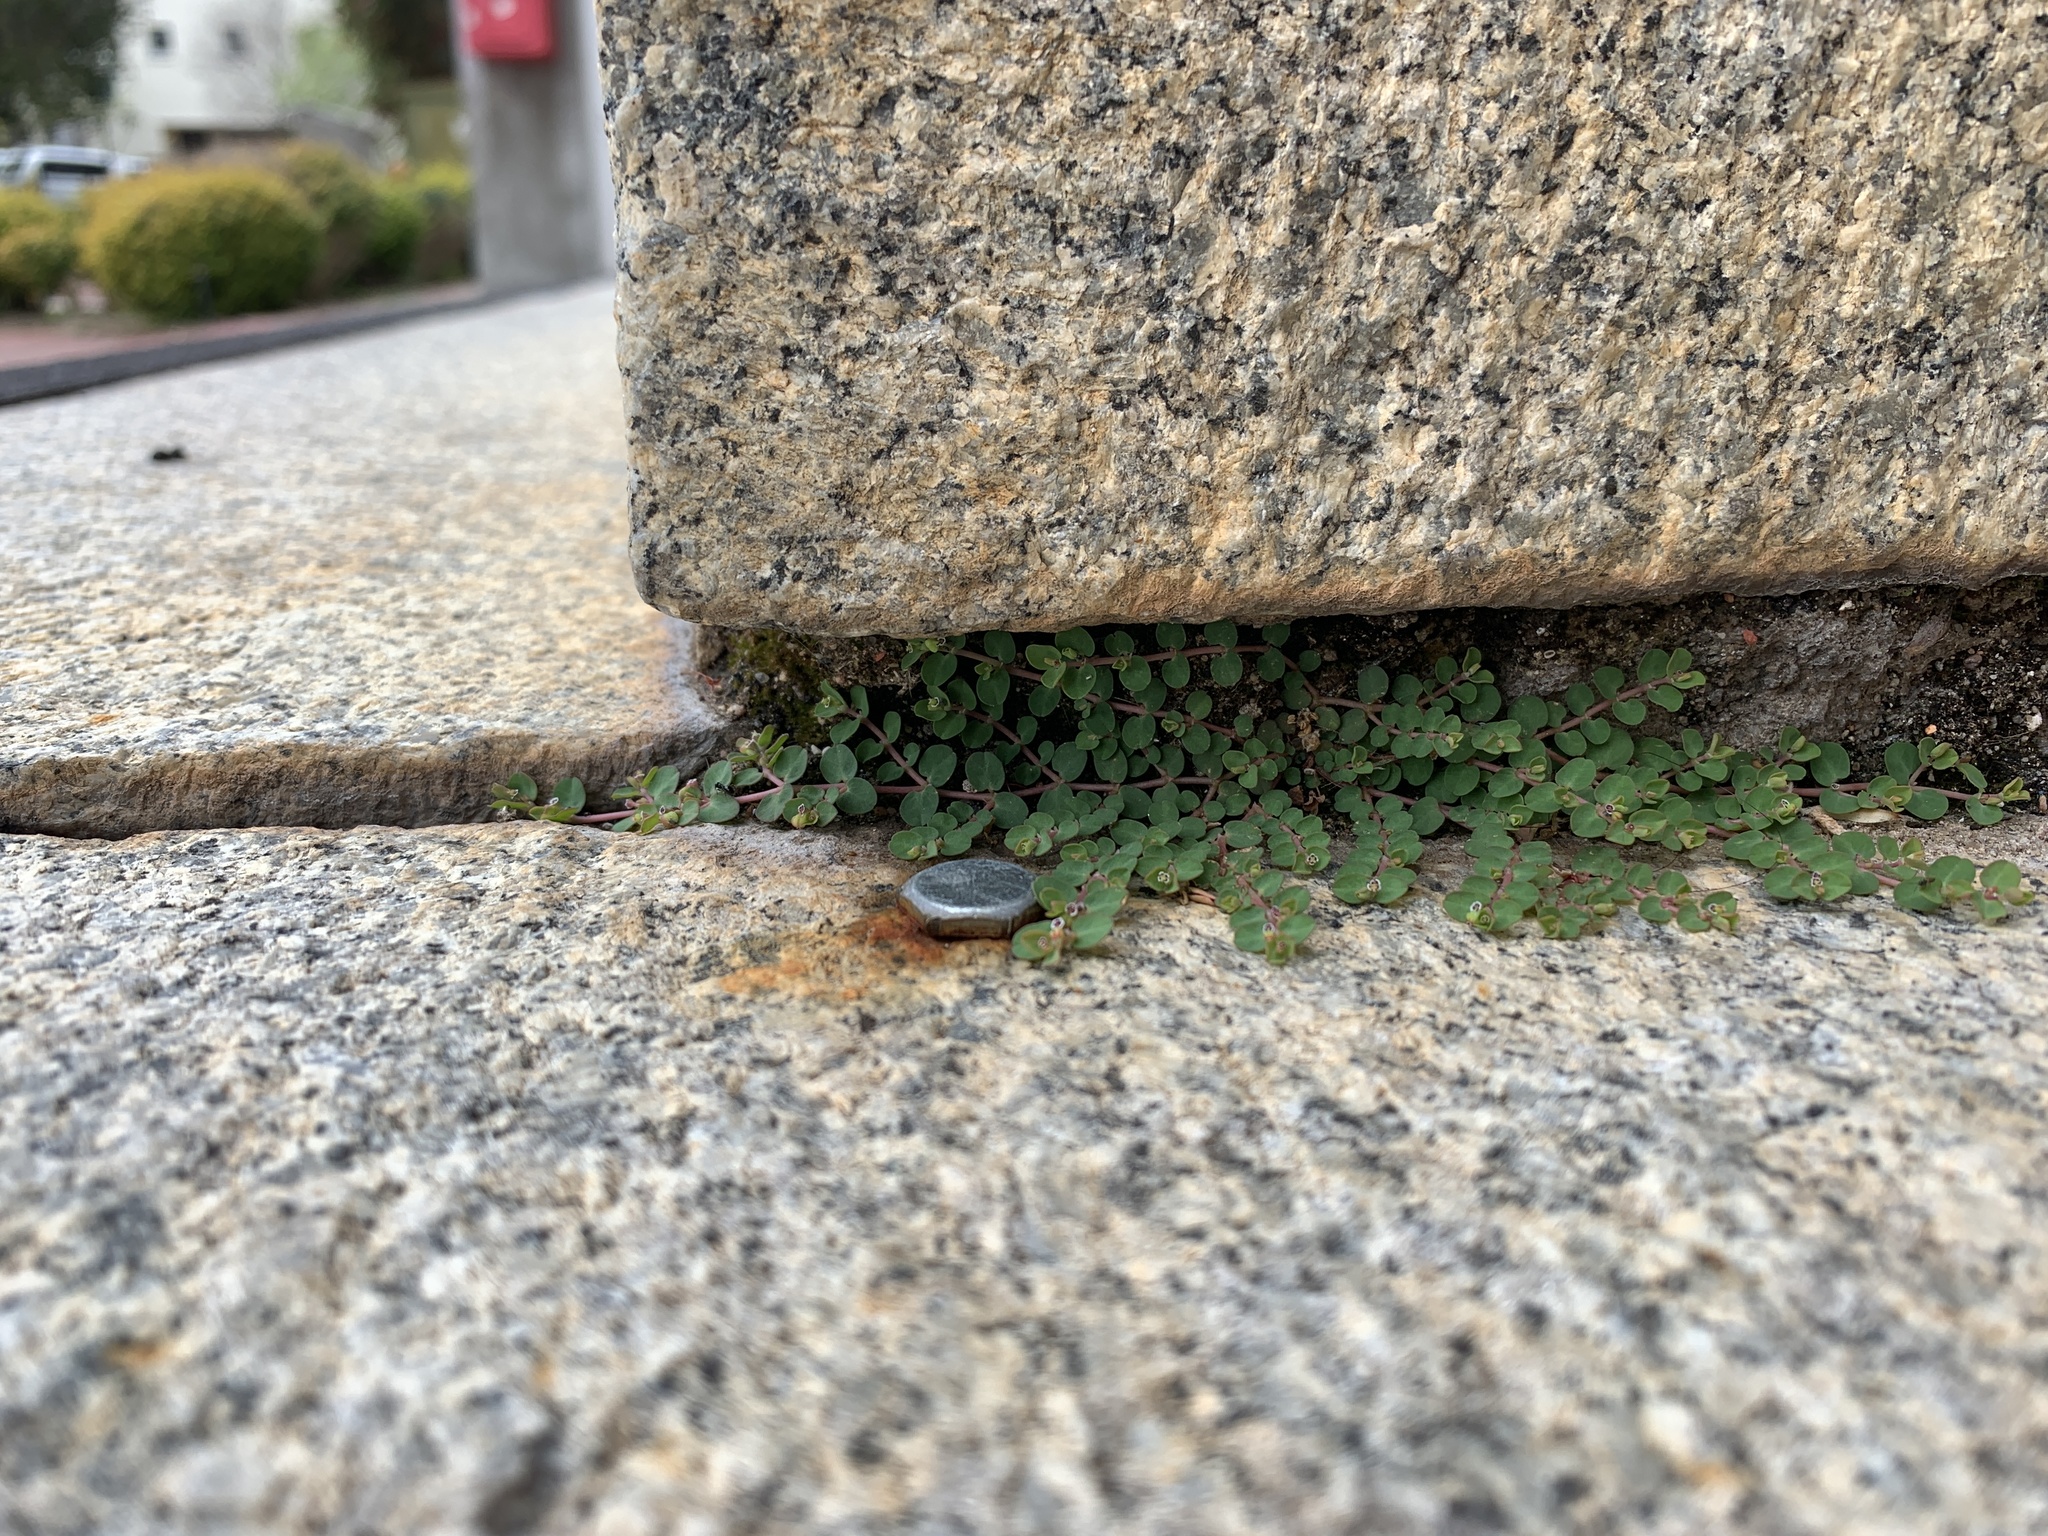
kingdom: Plantae
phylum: Tracheophyta
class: Magnoliopsida
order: Malpighiales
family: Euphorbiaceae
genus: Euphorbia
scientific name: Euphorbia serpens
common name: Matted sandmat
